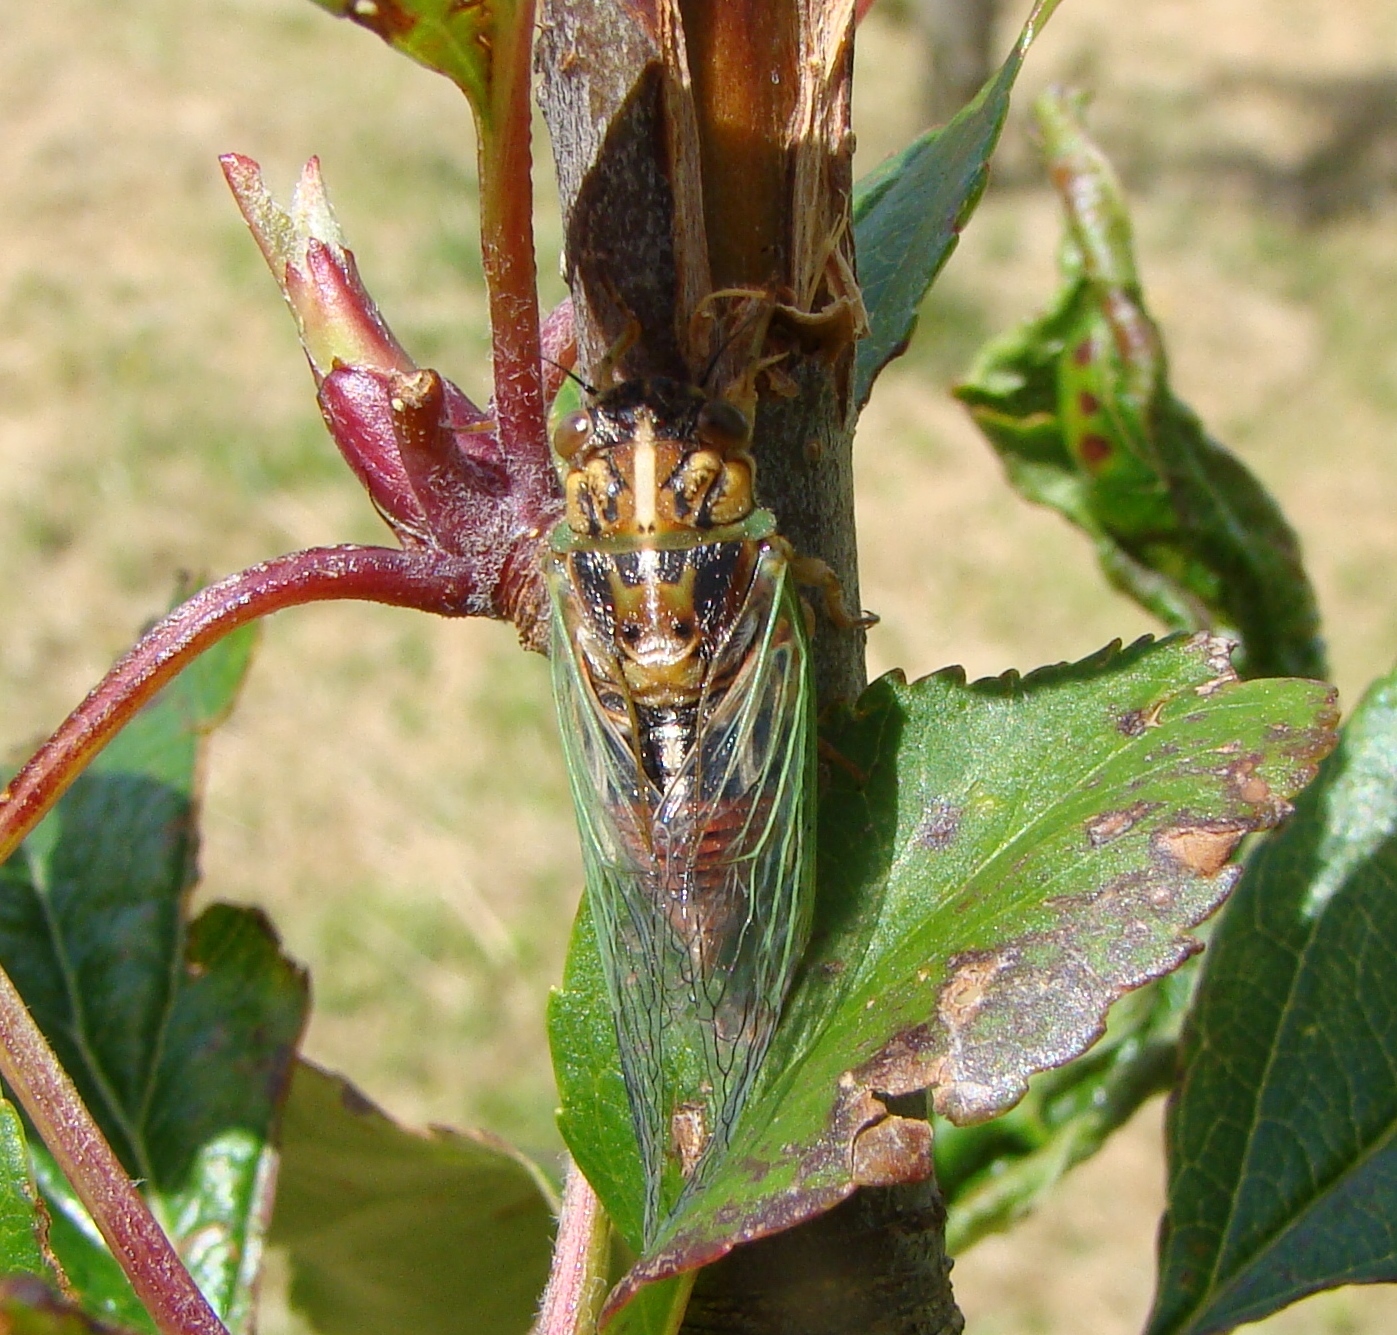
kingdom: Animalia
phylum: Arthropoda
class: Insecta
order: Hemiptera
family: Cicadidae
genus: Rhodopsalta
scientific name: Rhodopsalta cruentata
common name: Blood redtail cicada
